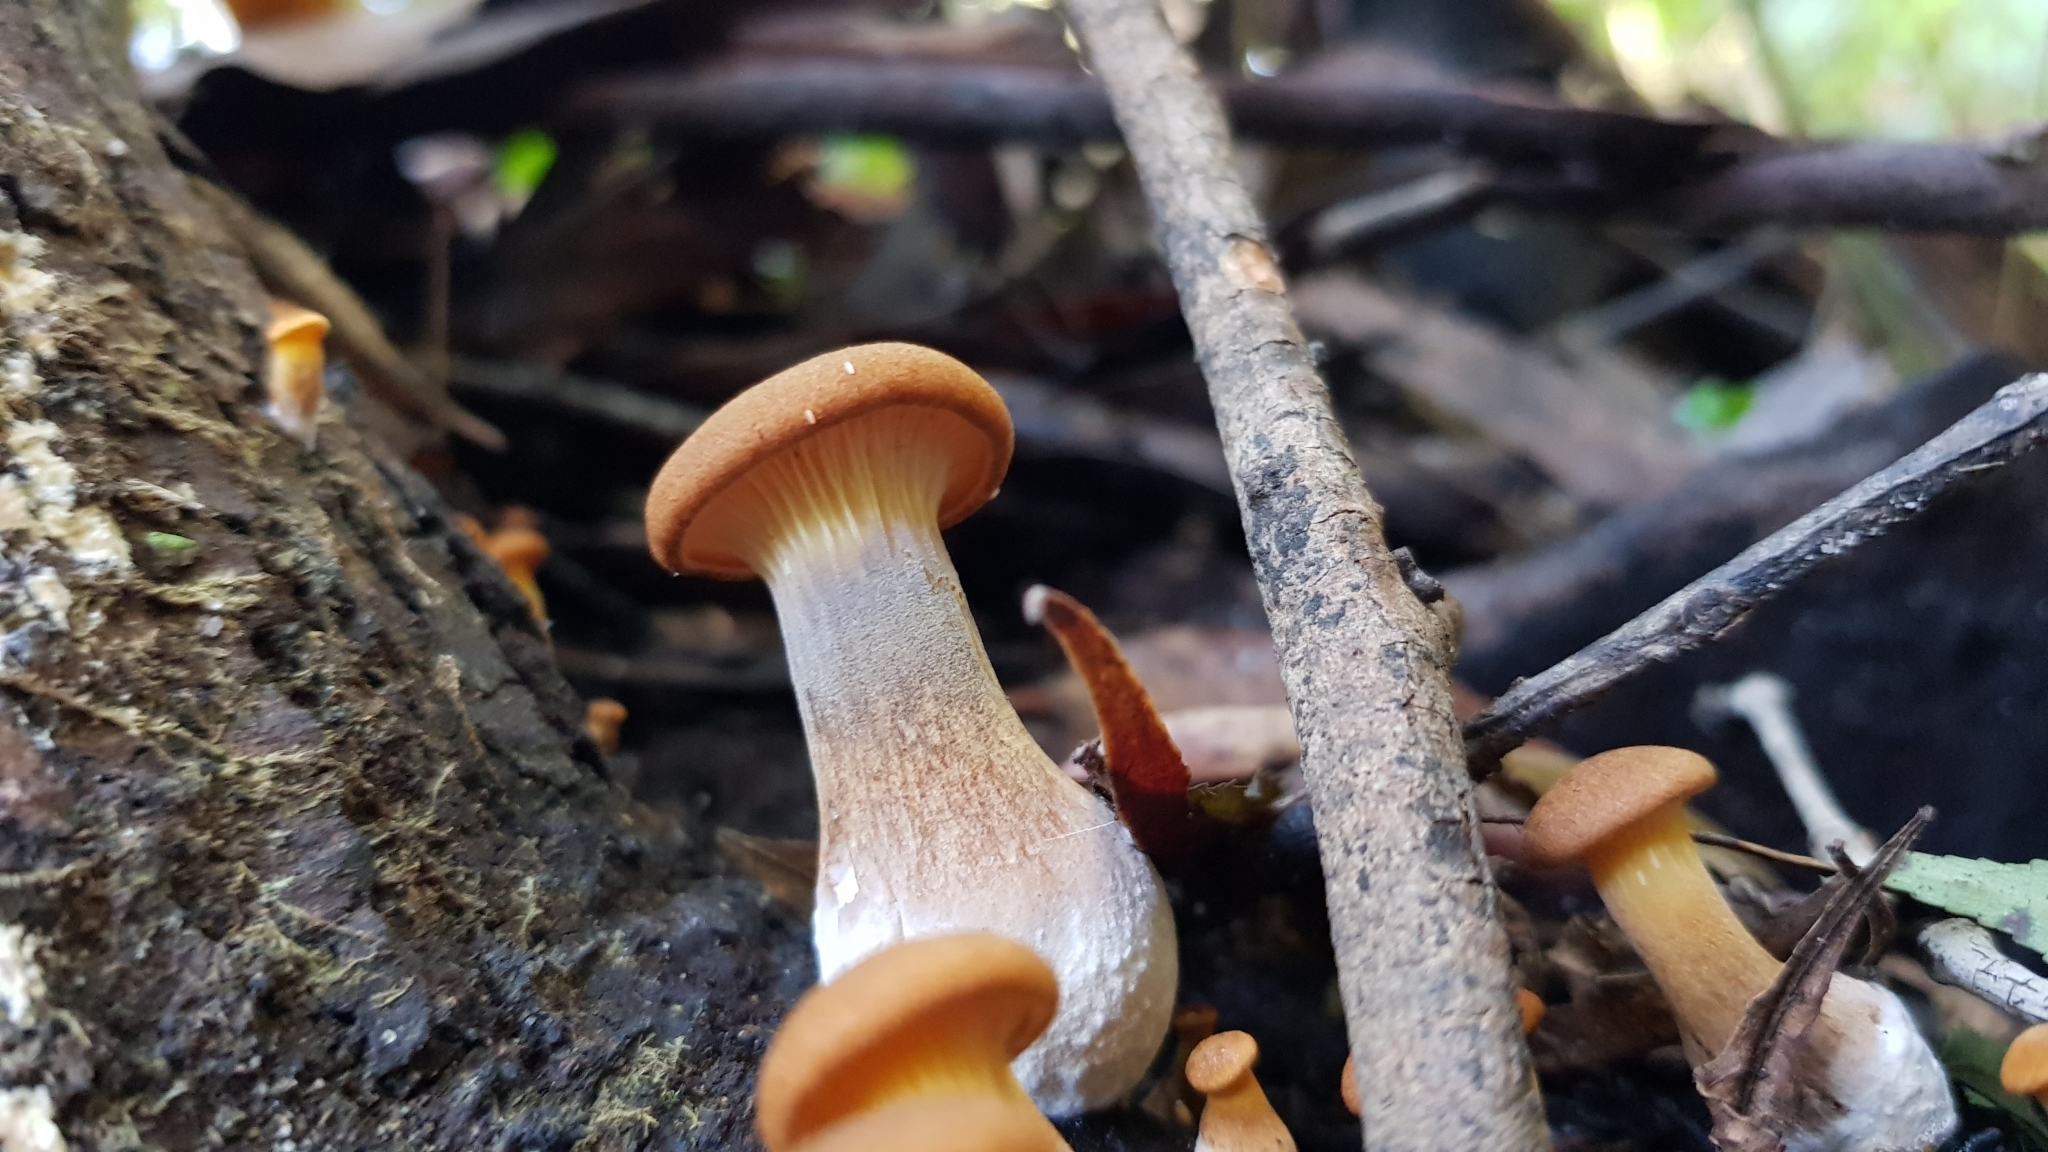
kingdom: Fungi
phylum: Basidiomycota
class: Agaricomycetes
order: Agaricales
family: Omphalotaceae
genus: Omphalotus
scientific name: Omphalotus nidiformis
